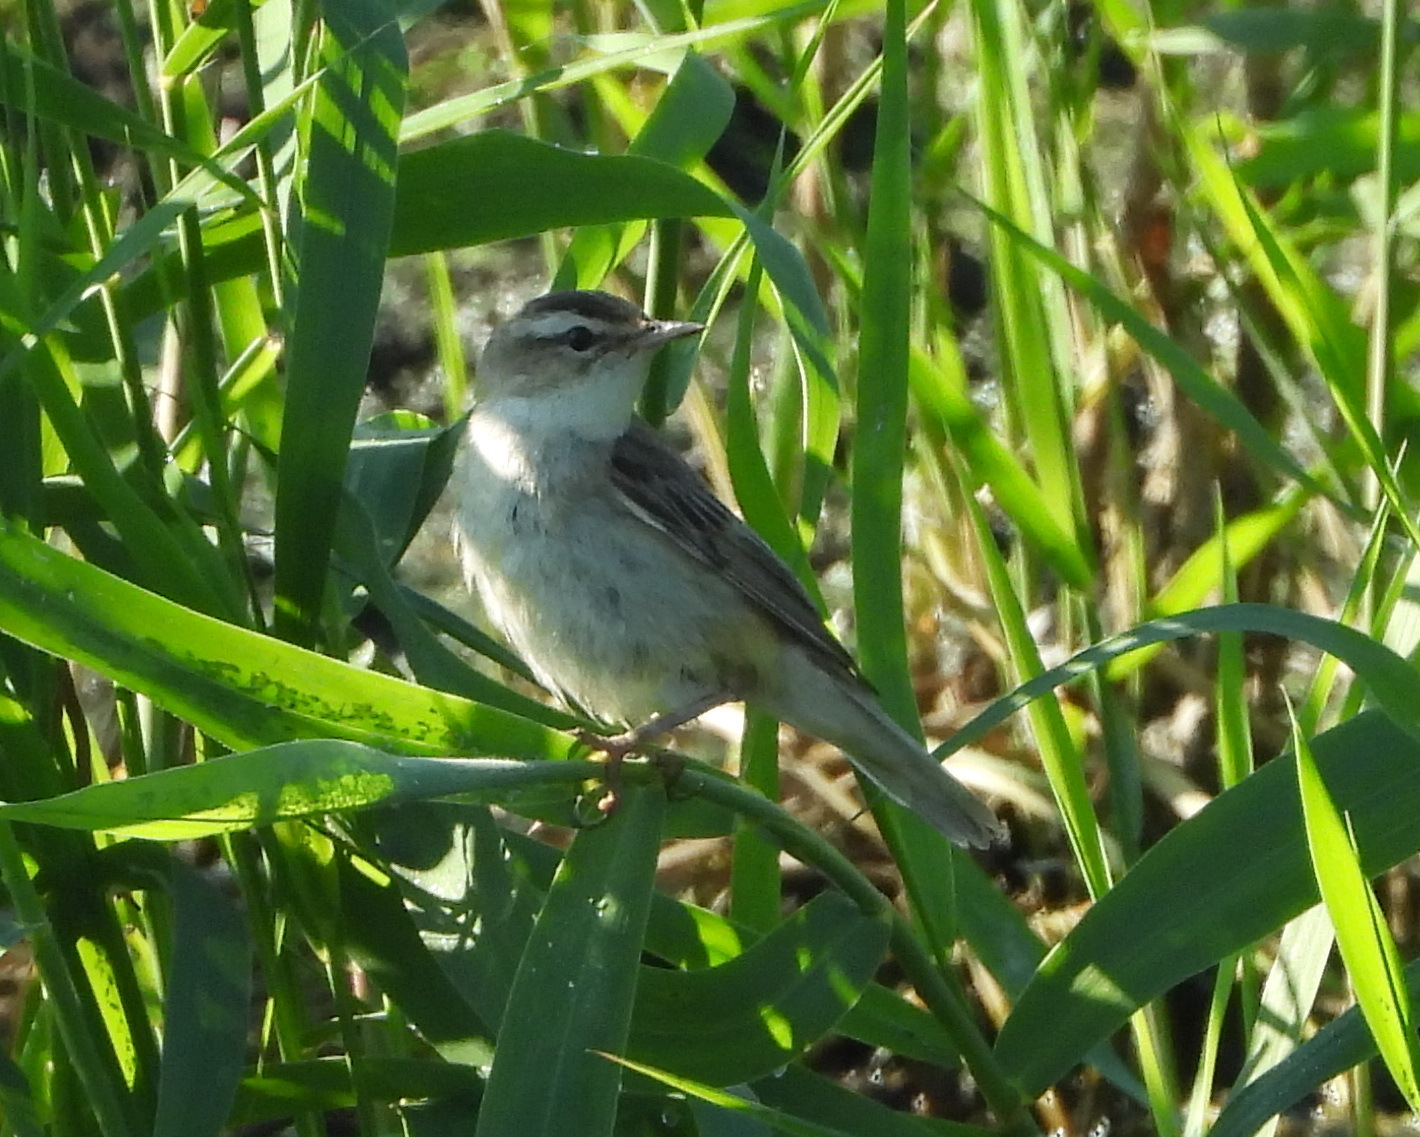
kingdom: Animalia
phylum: Chordata
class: Aves
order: Passeriformes
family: Acrocephalidae
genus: Acrocephalus
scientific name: Acrocephalus schoenobaenus
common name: Sedge warbler
